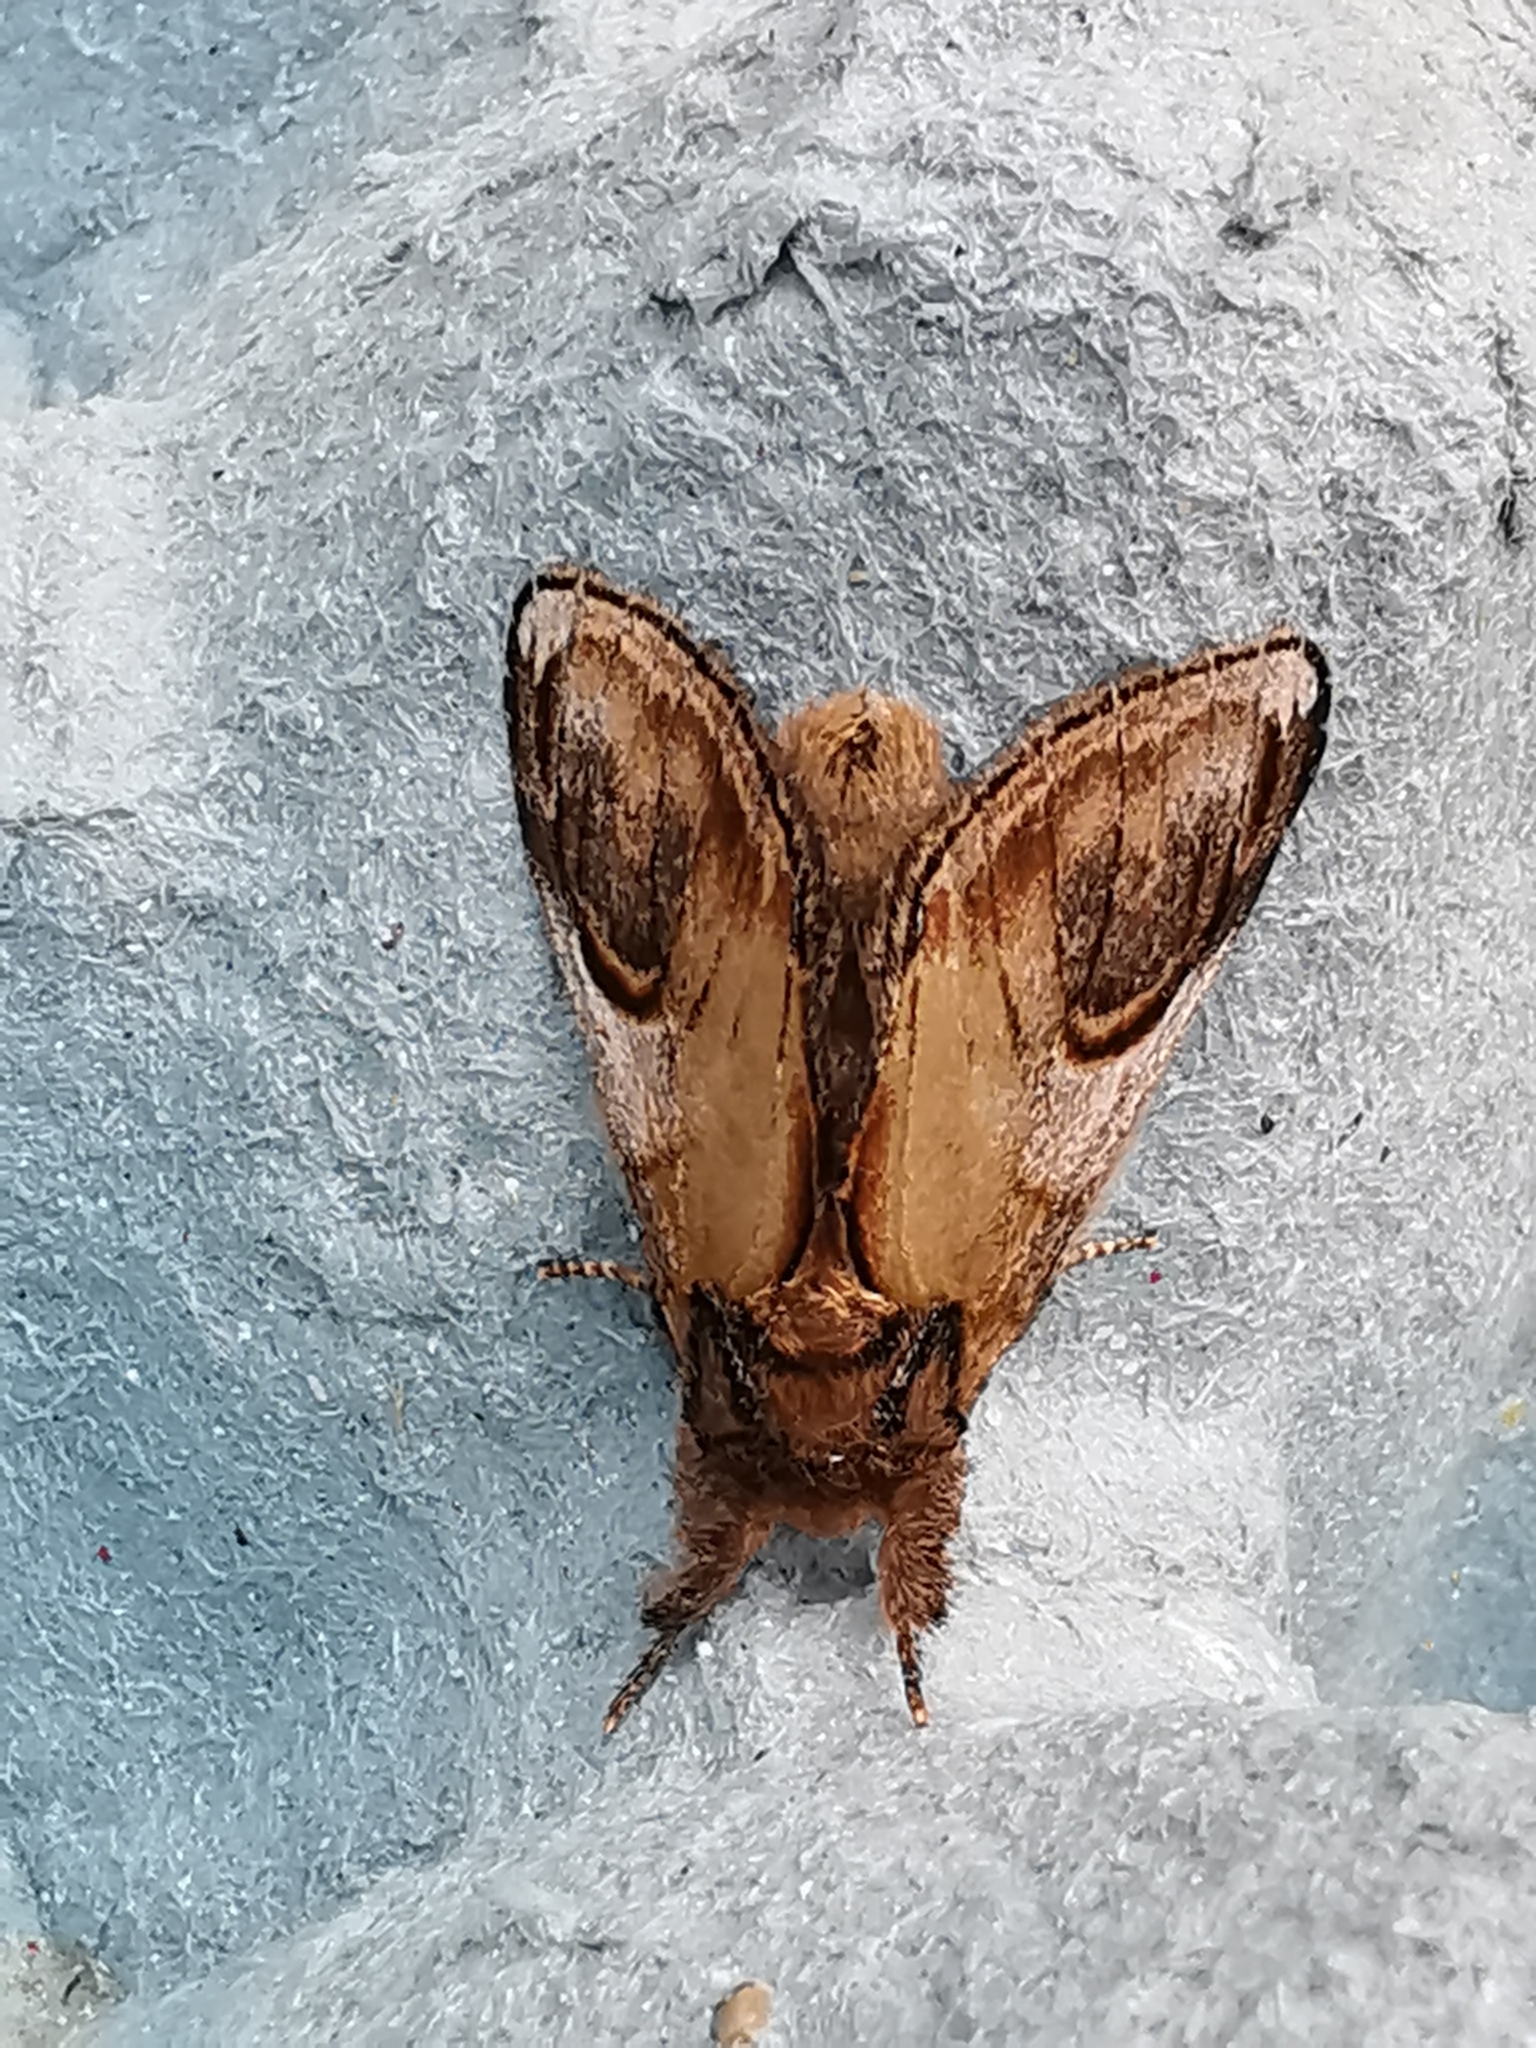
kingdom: Animalia
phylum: Arthropoda
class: Insecta
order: Lepidoptera
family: Notodontidae
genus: Notodonta
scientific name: Notodonta ziczac
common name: Pebble prominent
